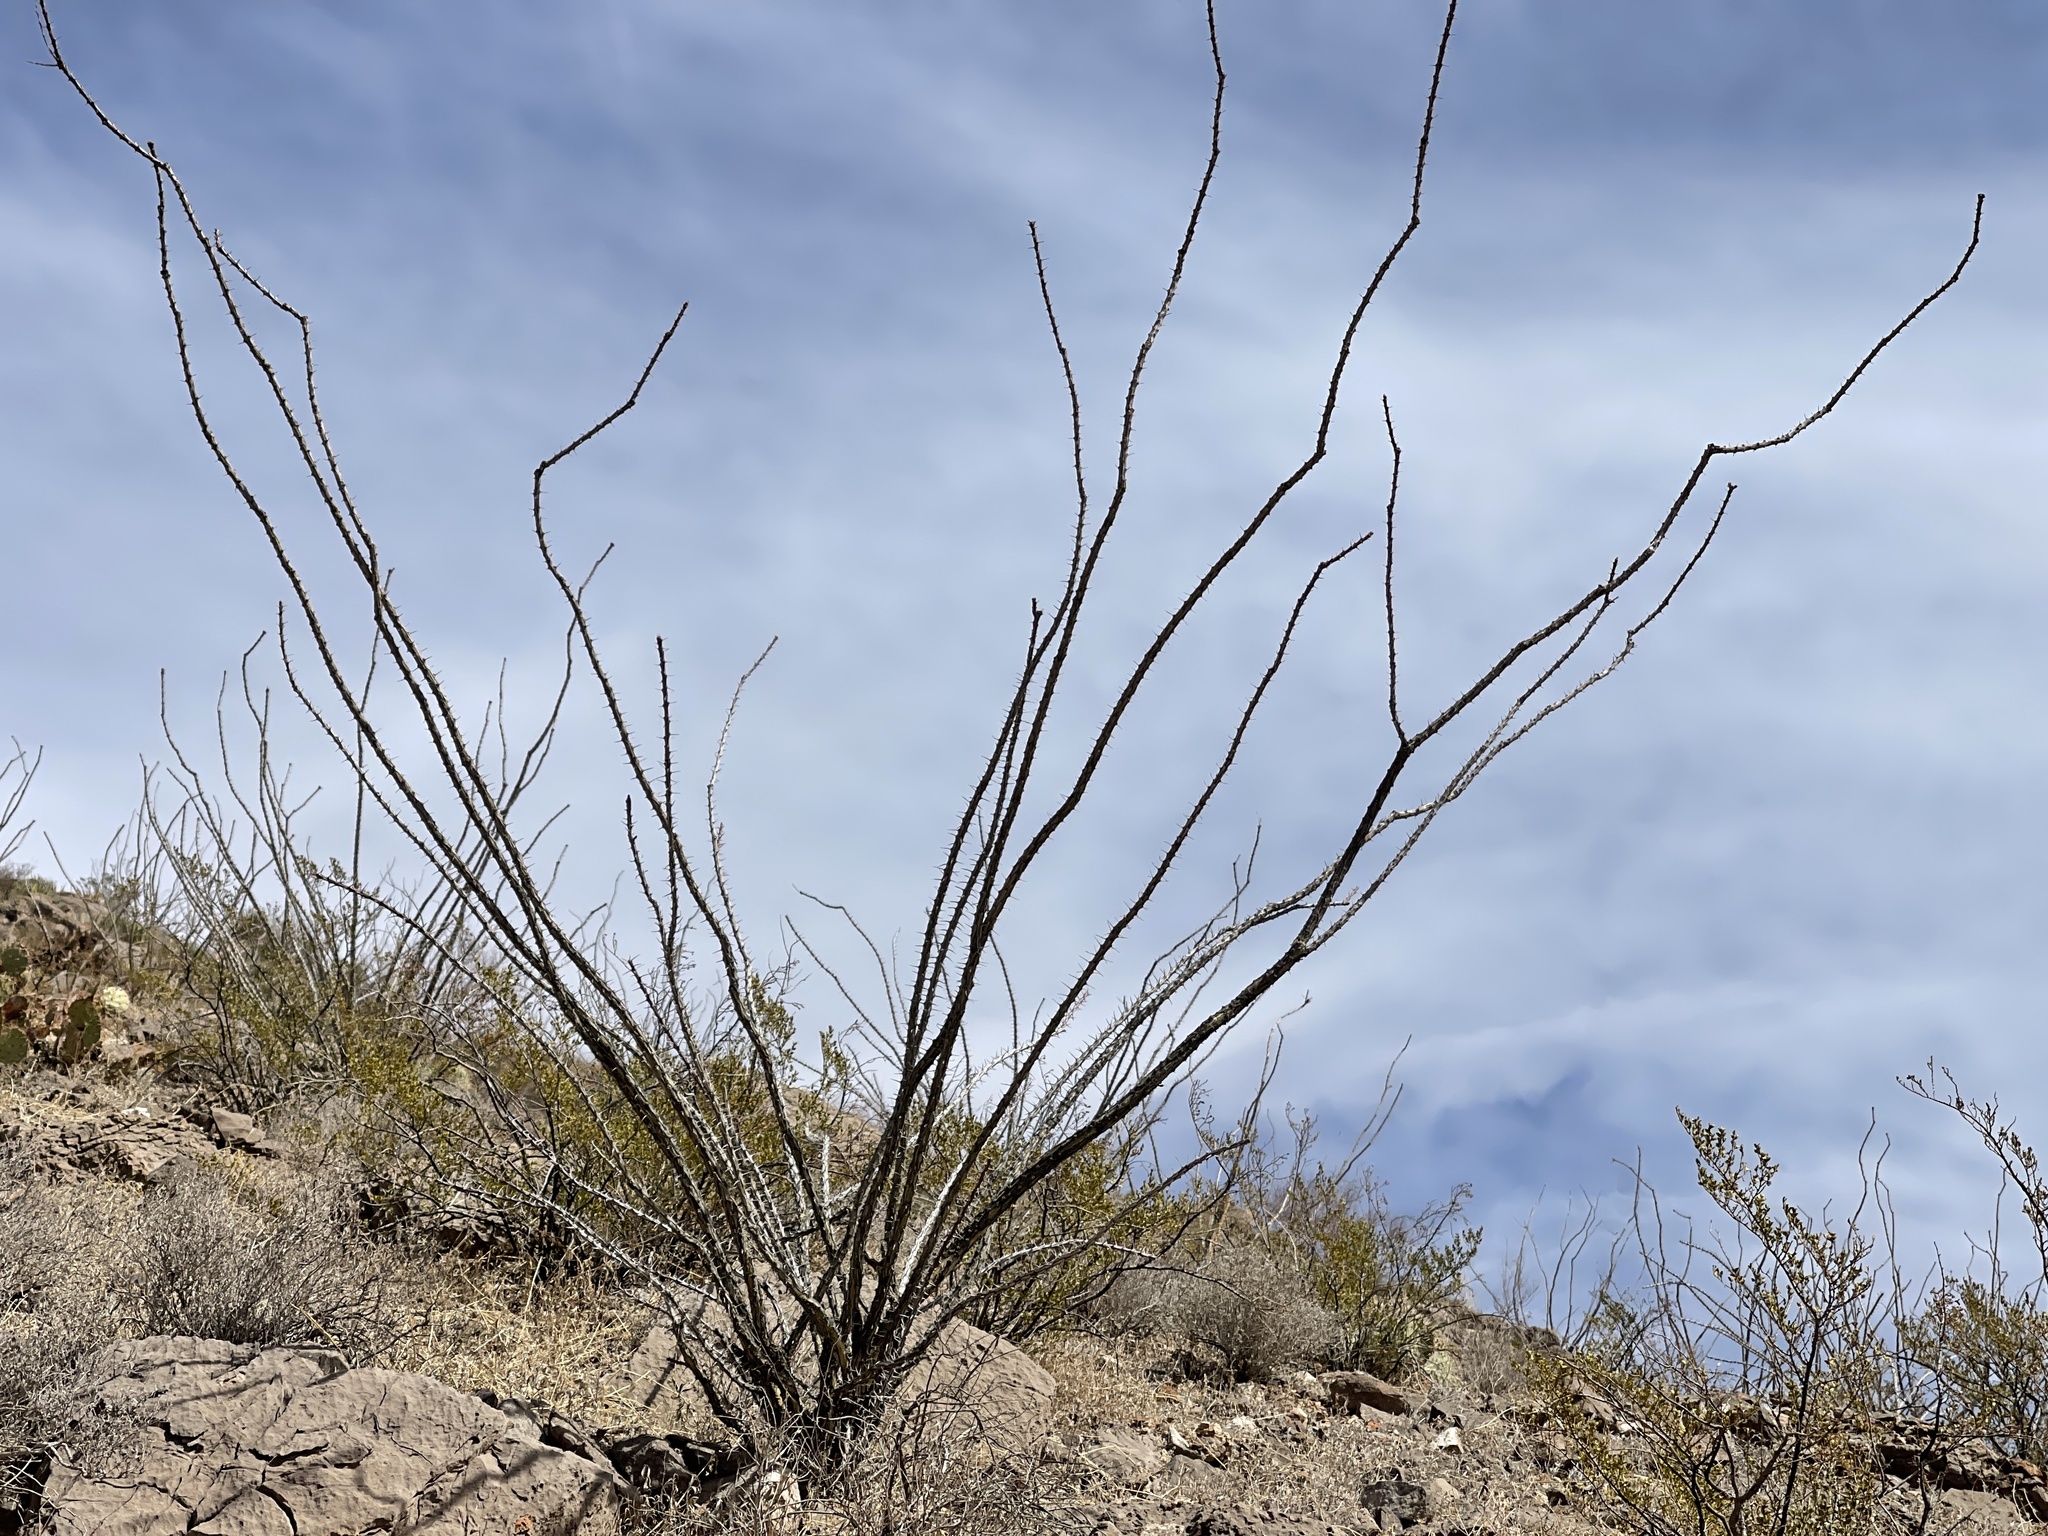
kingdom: Plantae
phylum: Tracheophyta
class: Magnoliopsida
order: Ericales
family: Fouquieriaceae
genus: Fouquieria
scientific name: Fouquieria splendens
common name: Vine-cactus
